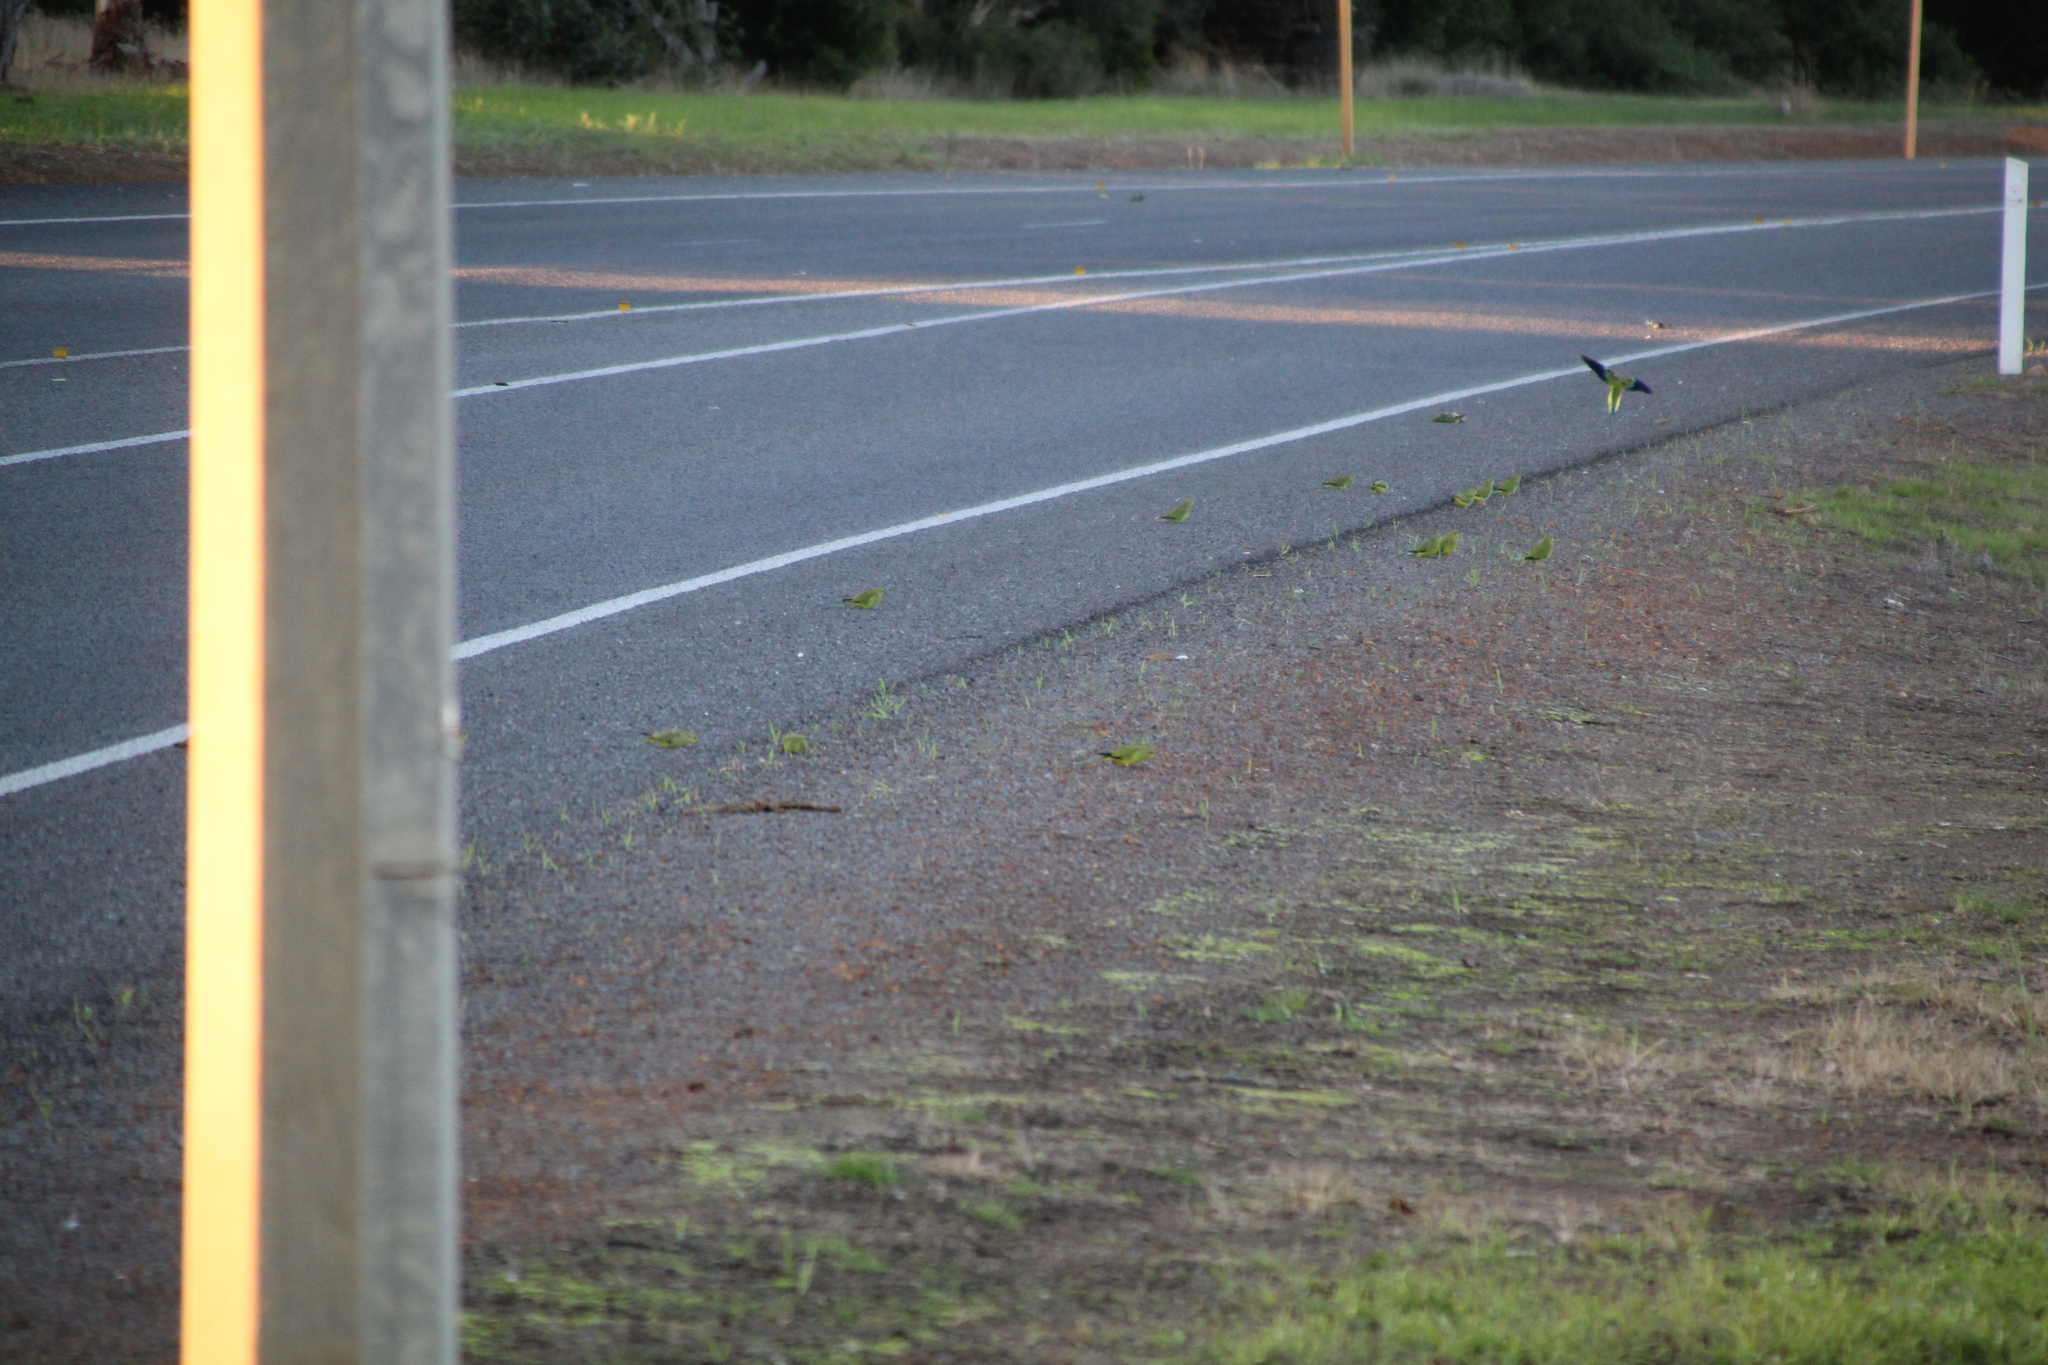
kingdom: Animalia
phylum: Chordata
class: Aves
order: Psittaciformes
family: Psittacidae
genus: Neophema
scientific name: Neophema elegans
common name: Elegant parrot
